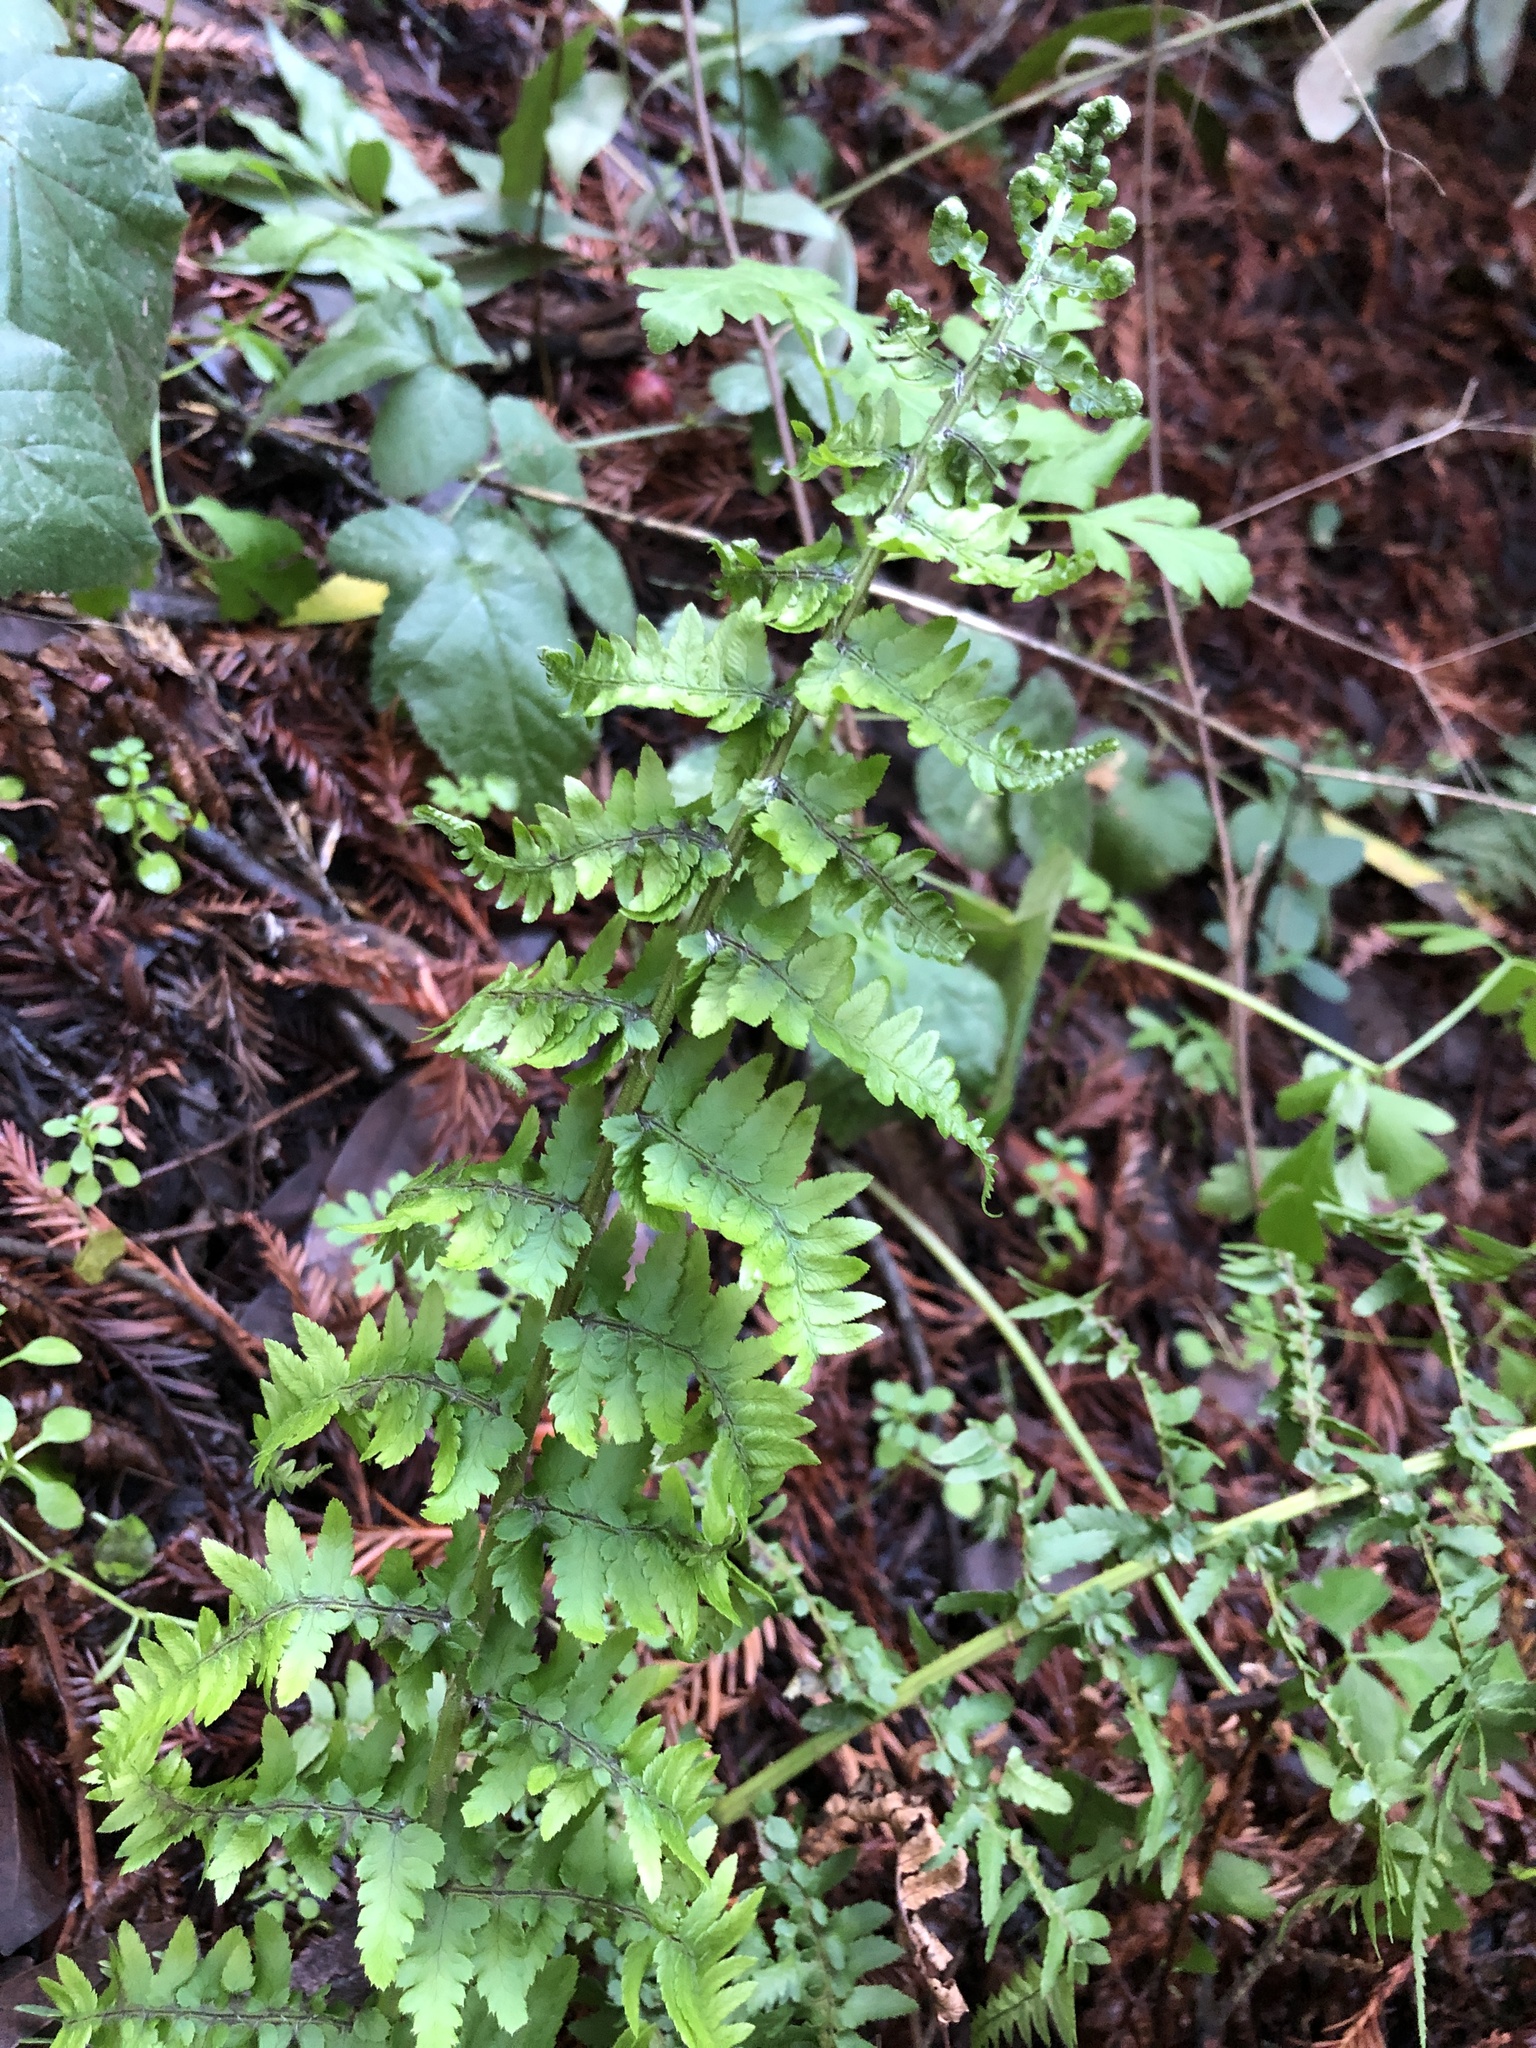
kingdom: Plantae
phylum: Tracheophyta
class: Polypodiopsida
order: Polypodiales
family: Dryopteridaceae
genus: Dryopteris
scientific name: Dryopteris arguta
